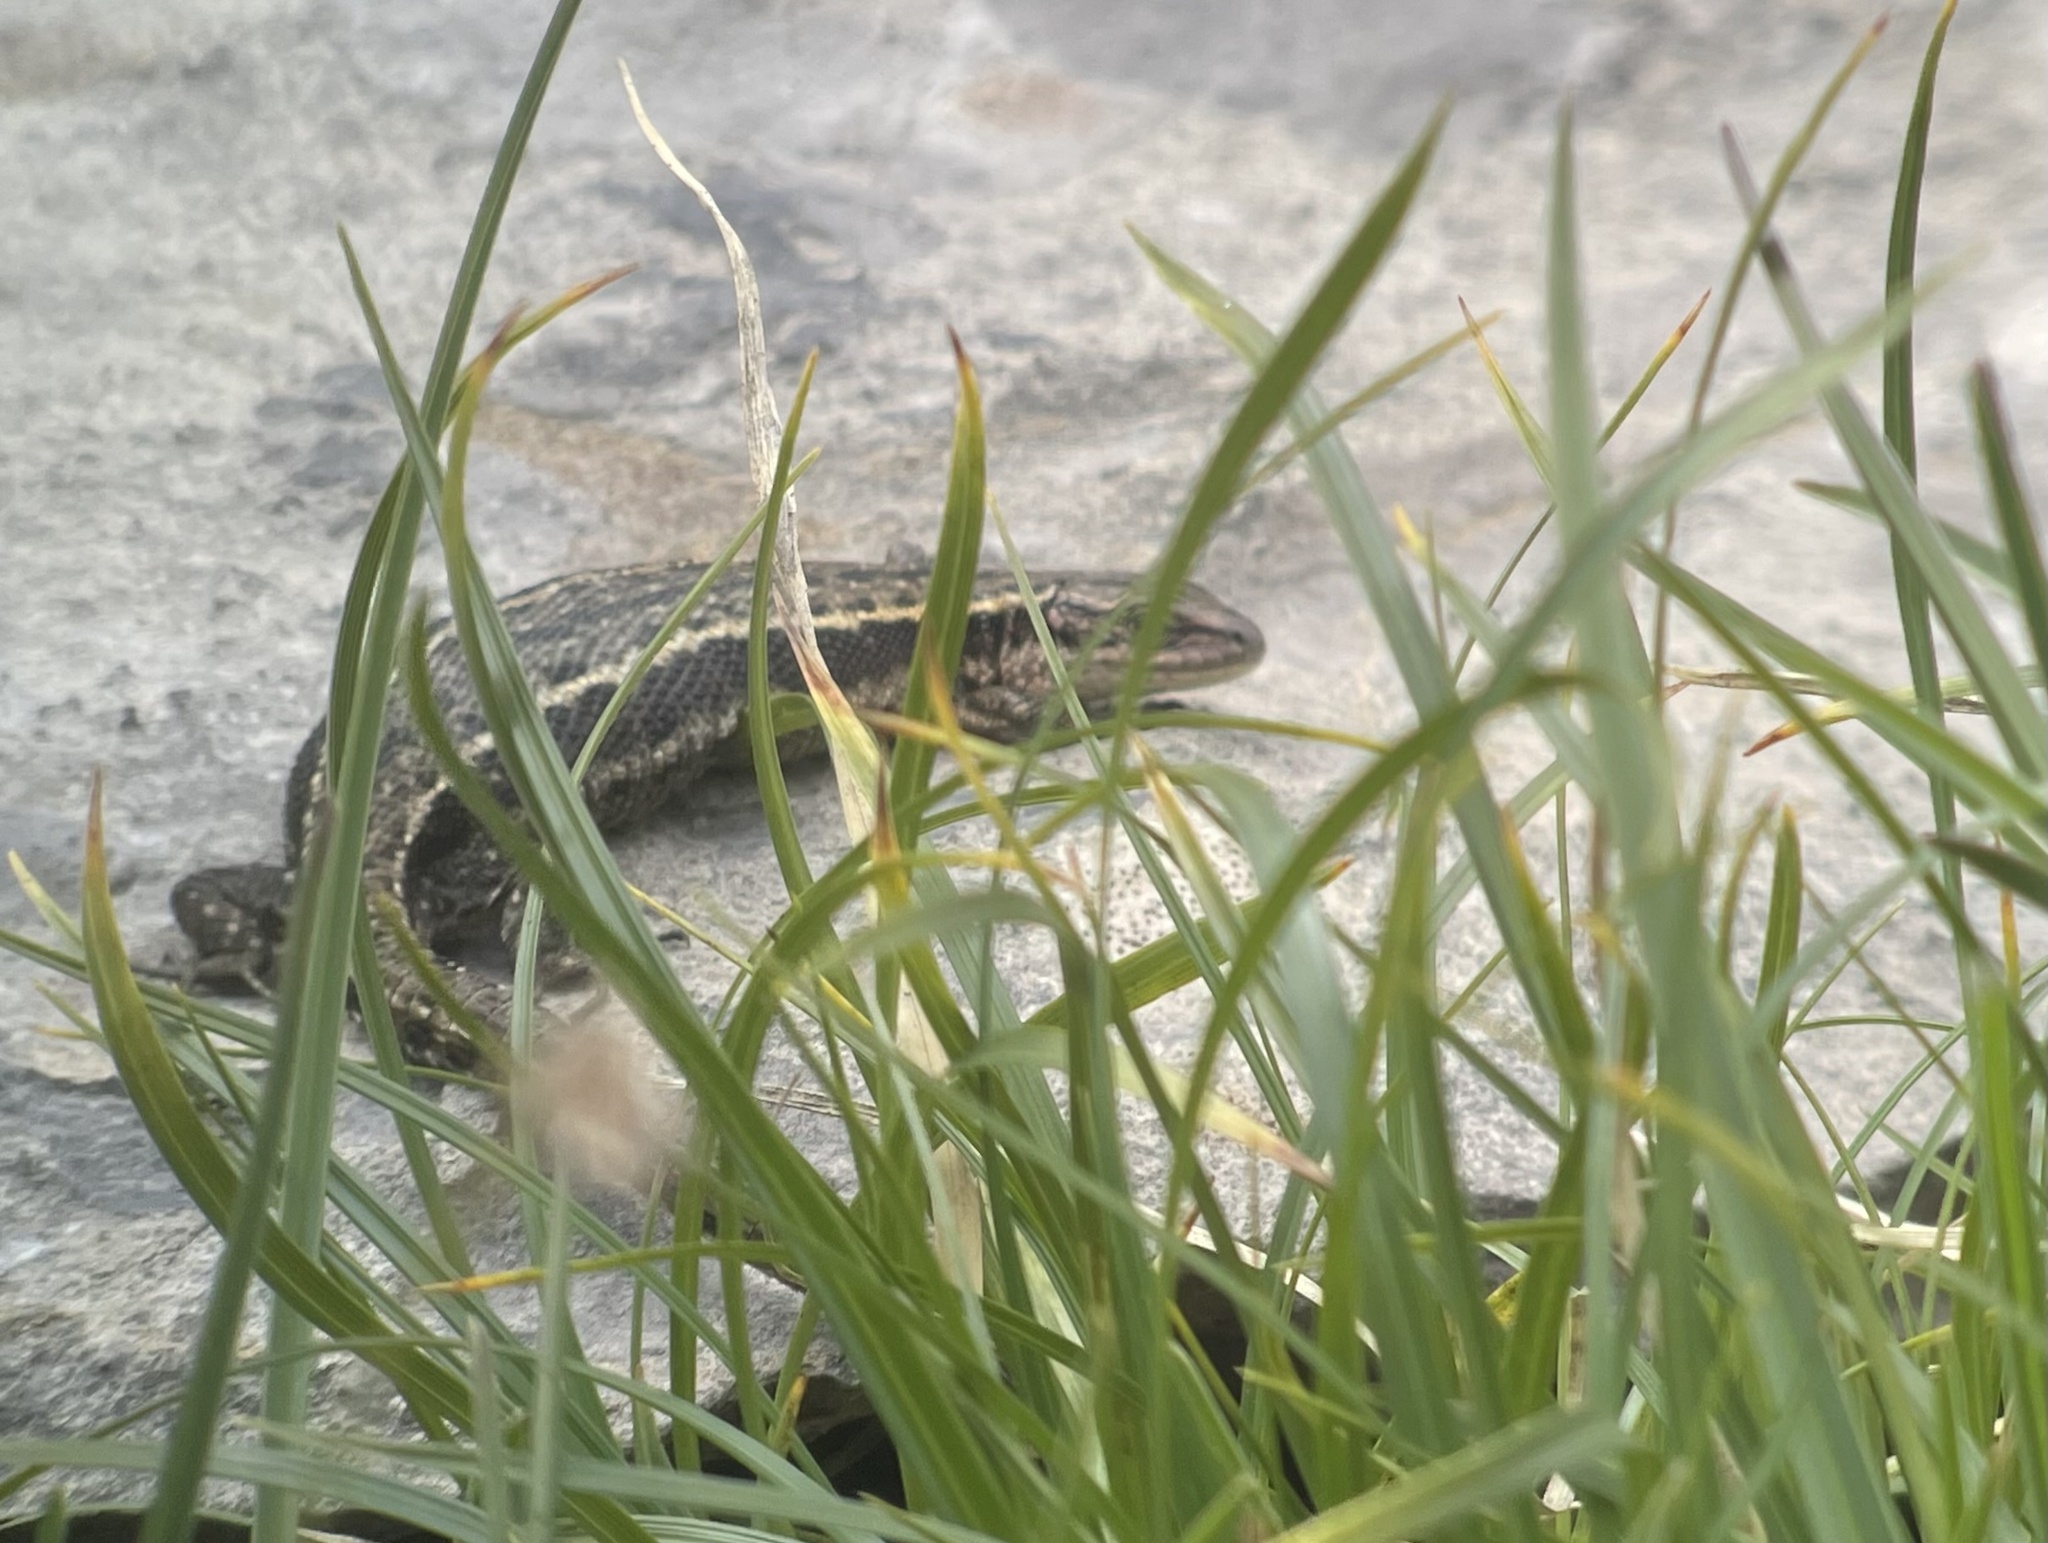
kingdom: Animalia
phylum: Chordata
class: Squamata
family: Lacertidae
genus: Zootoca
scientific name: Zootoca vivipara
